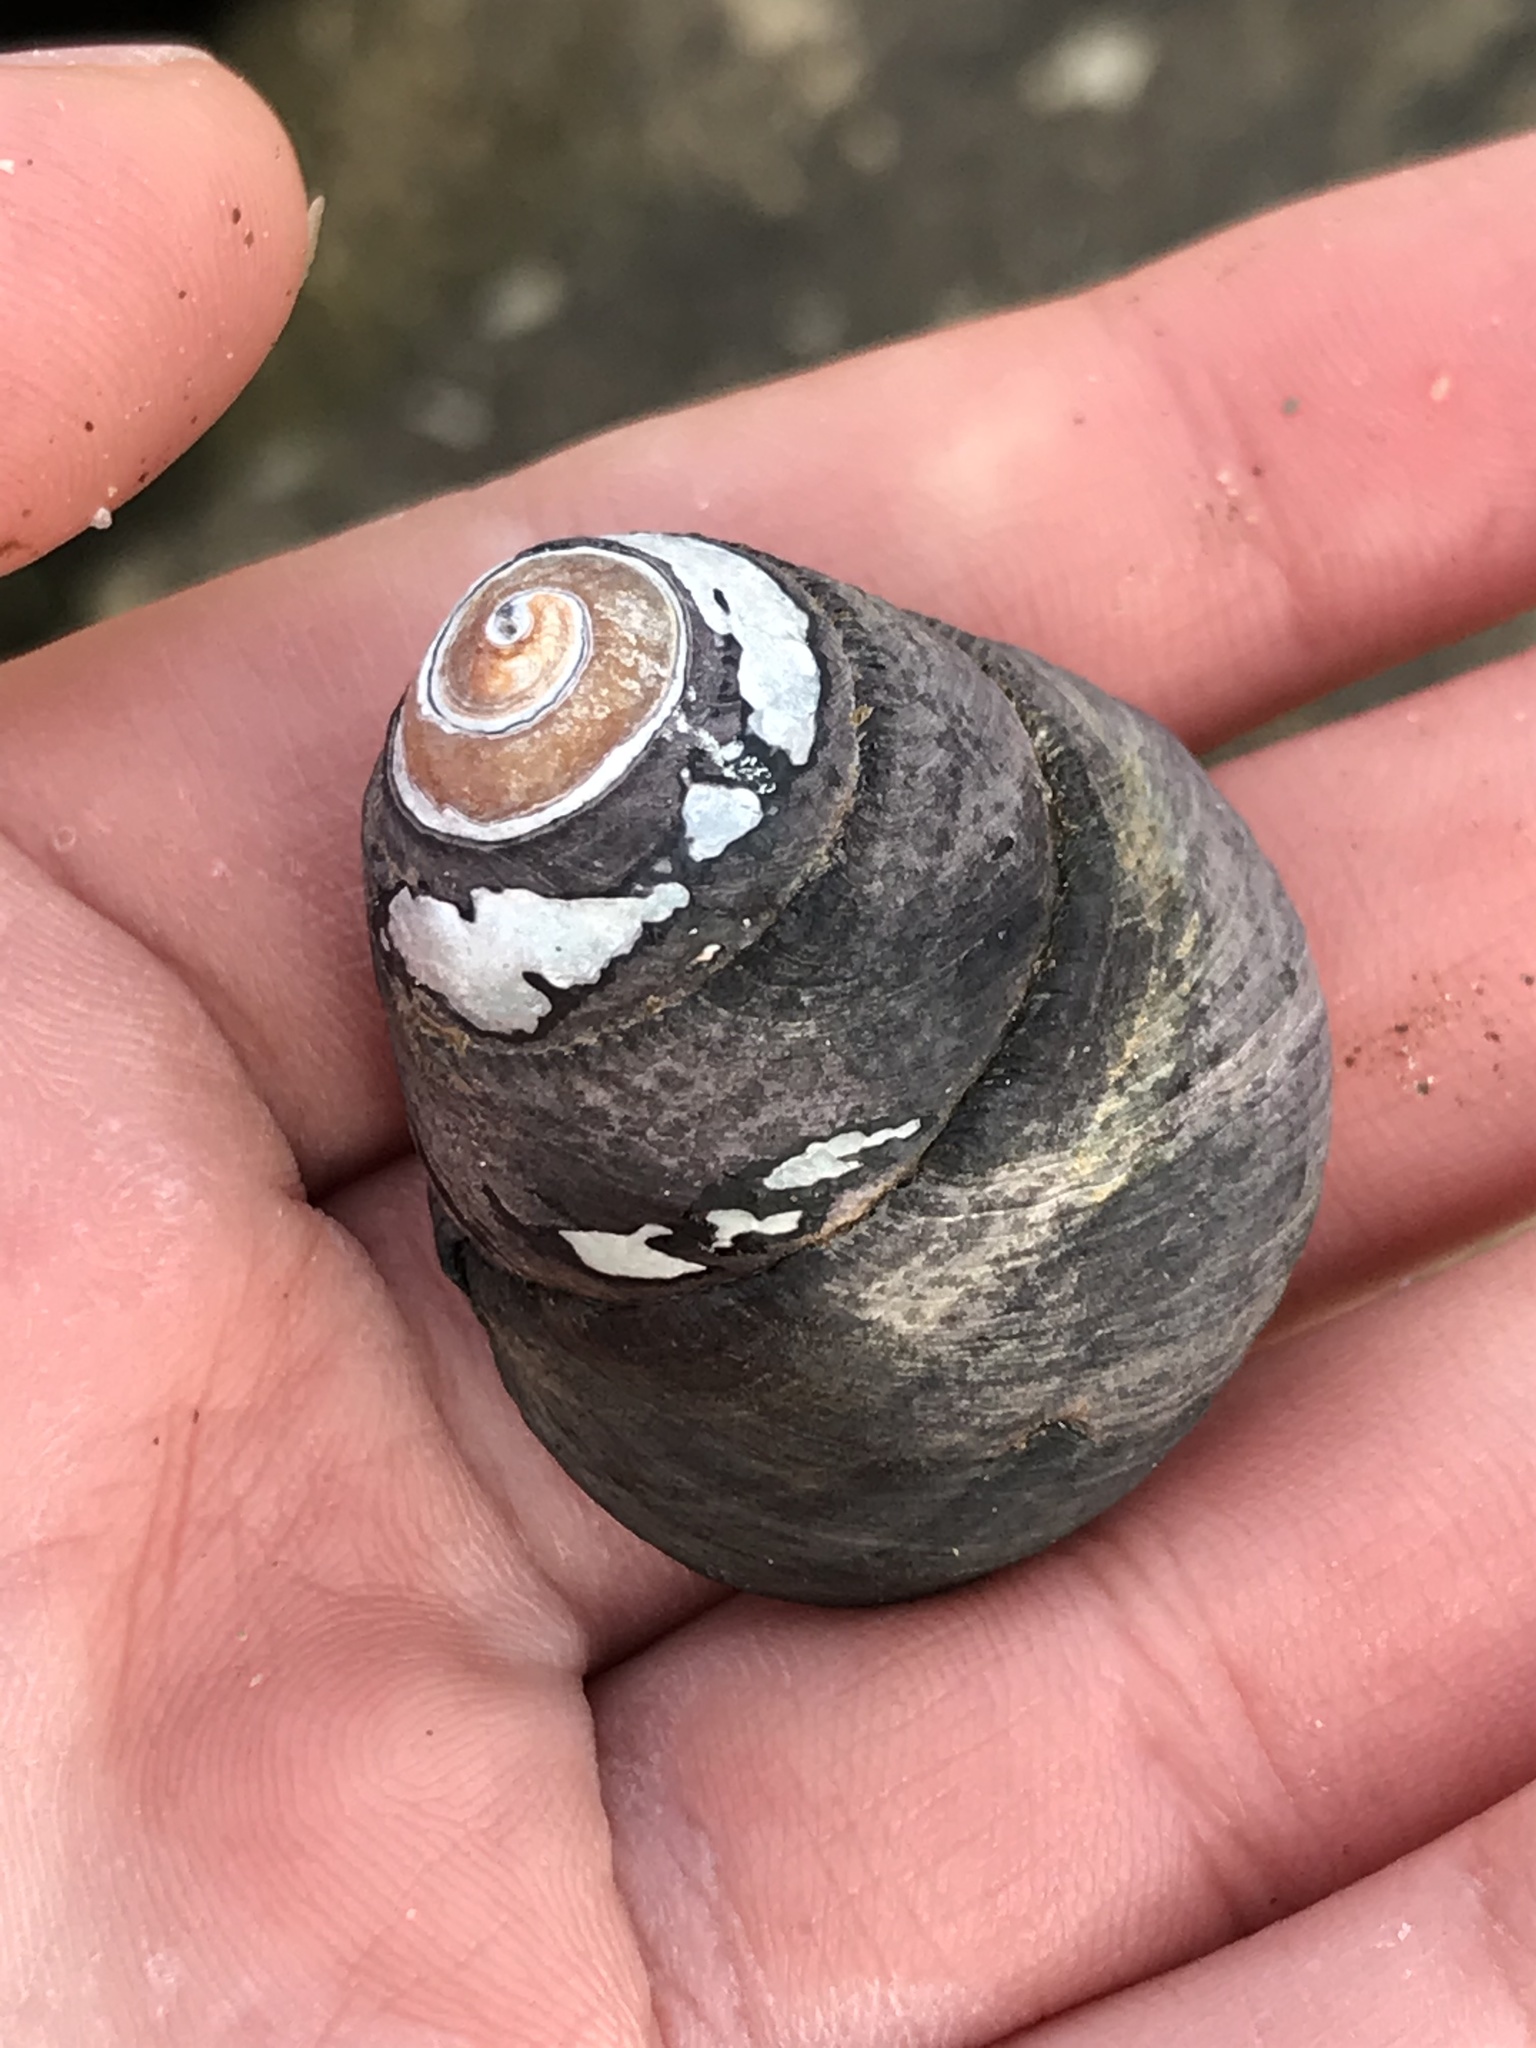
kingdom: Animalia
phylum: Mollusca
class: Gastropoda
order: Trochida
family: Tegulidae
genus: Tegula
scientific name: Tegula funebralis
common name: Black tegula
